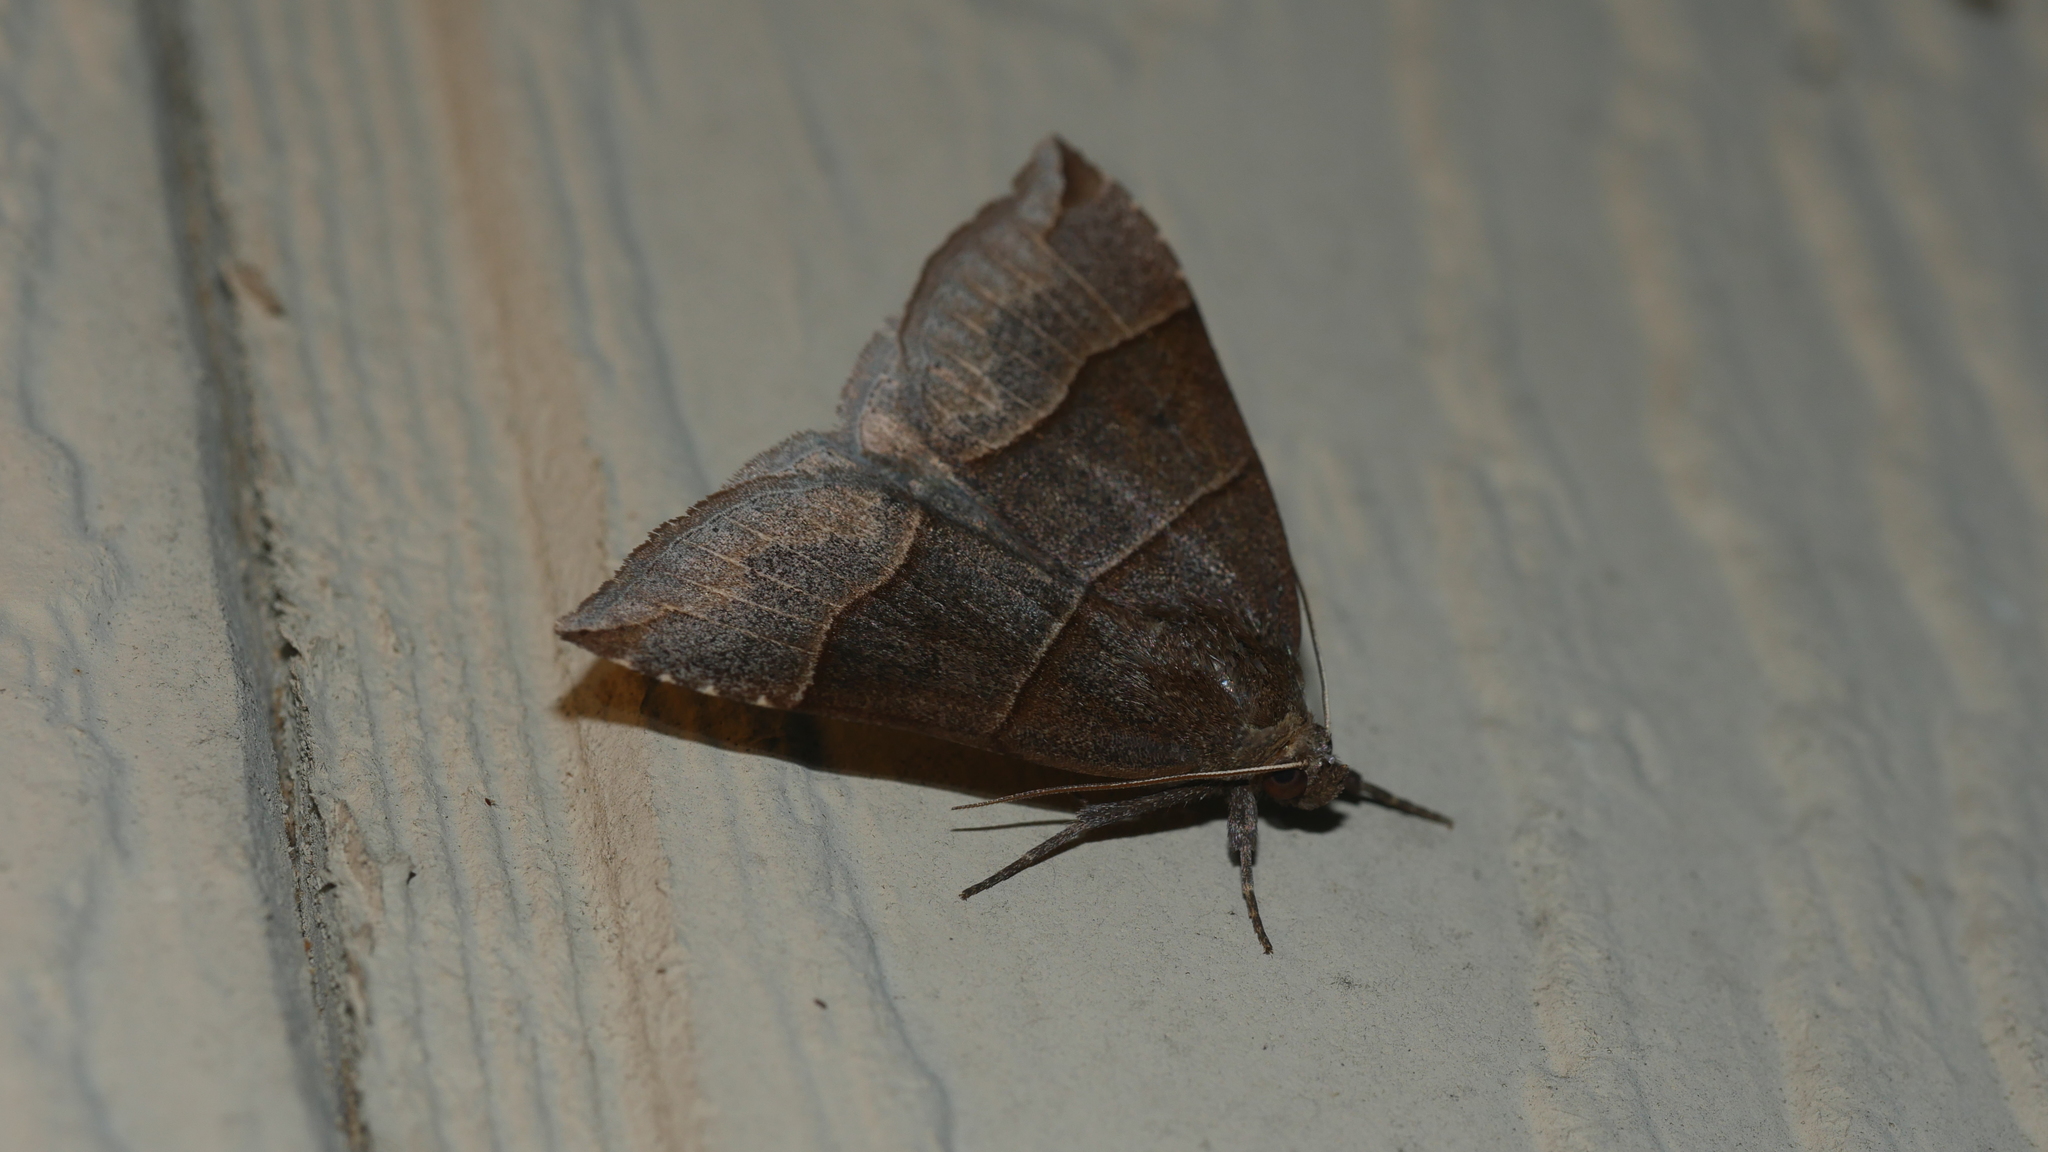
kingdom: Animalia
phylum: Arthropoda
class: Insecta
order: Lepidoptera
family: Erebidae
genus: Parallelia
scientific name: Parallelia bistriaris
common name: Maple looper moth
